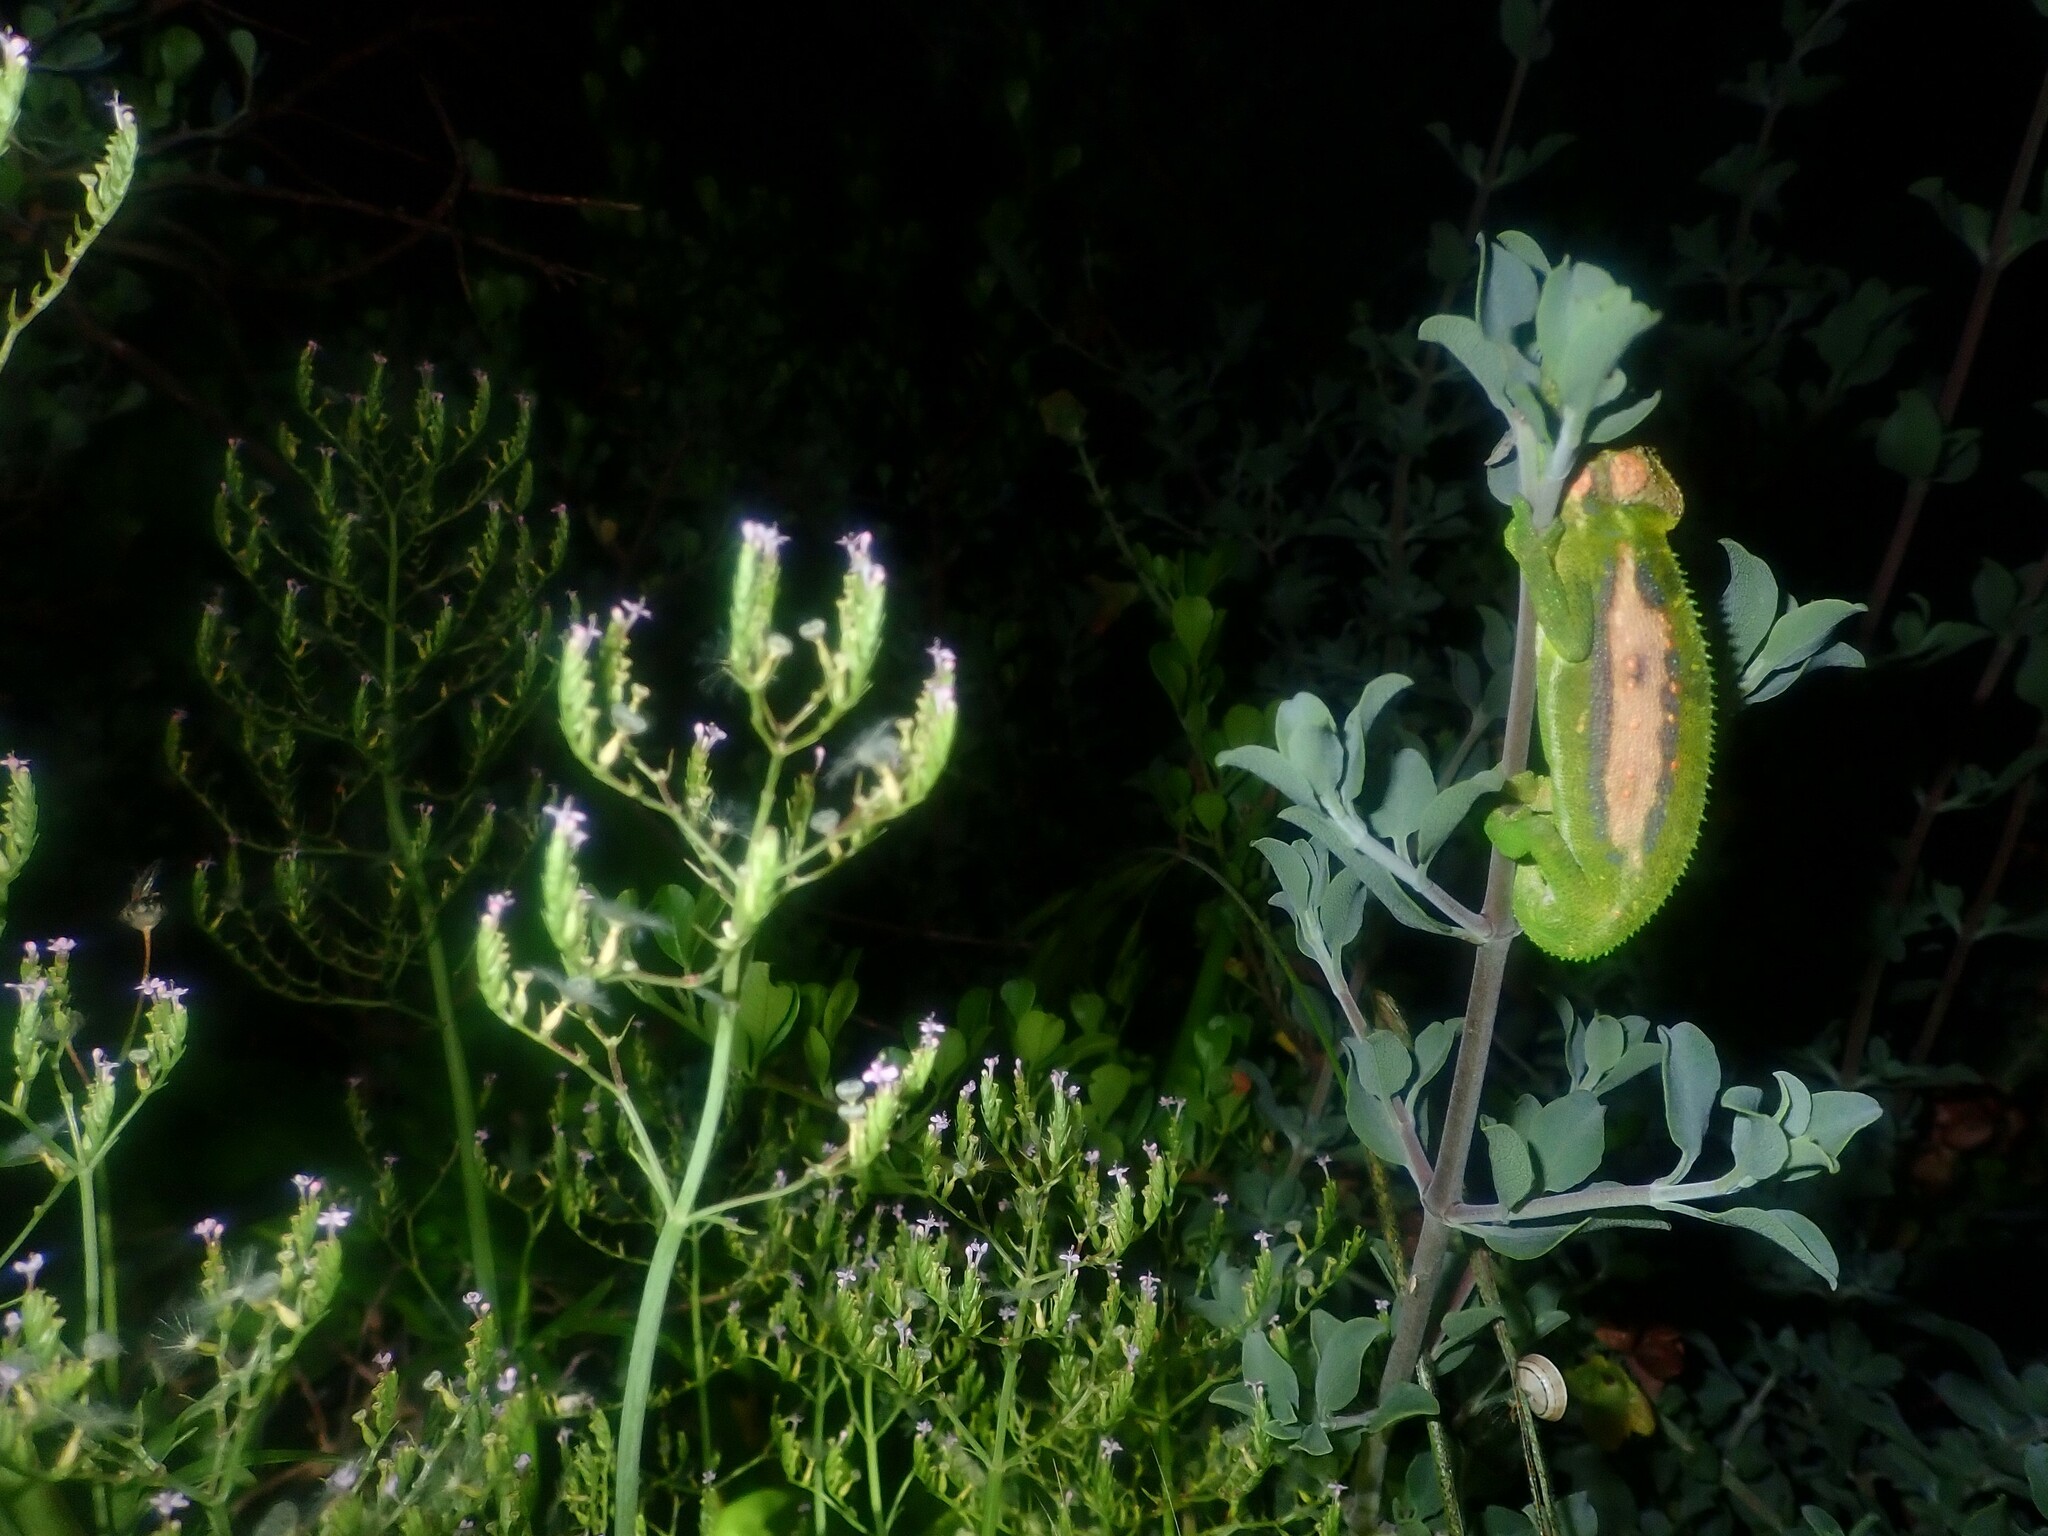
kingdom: Animalia
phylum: Chordata
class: Squamata
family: Chamaeleonidae
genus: Bradypodion
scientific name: Bradypodion pumilum
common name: Cape dwarf chameleon
